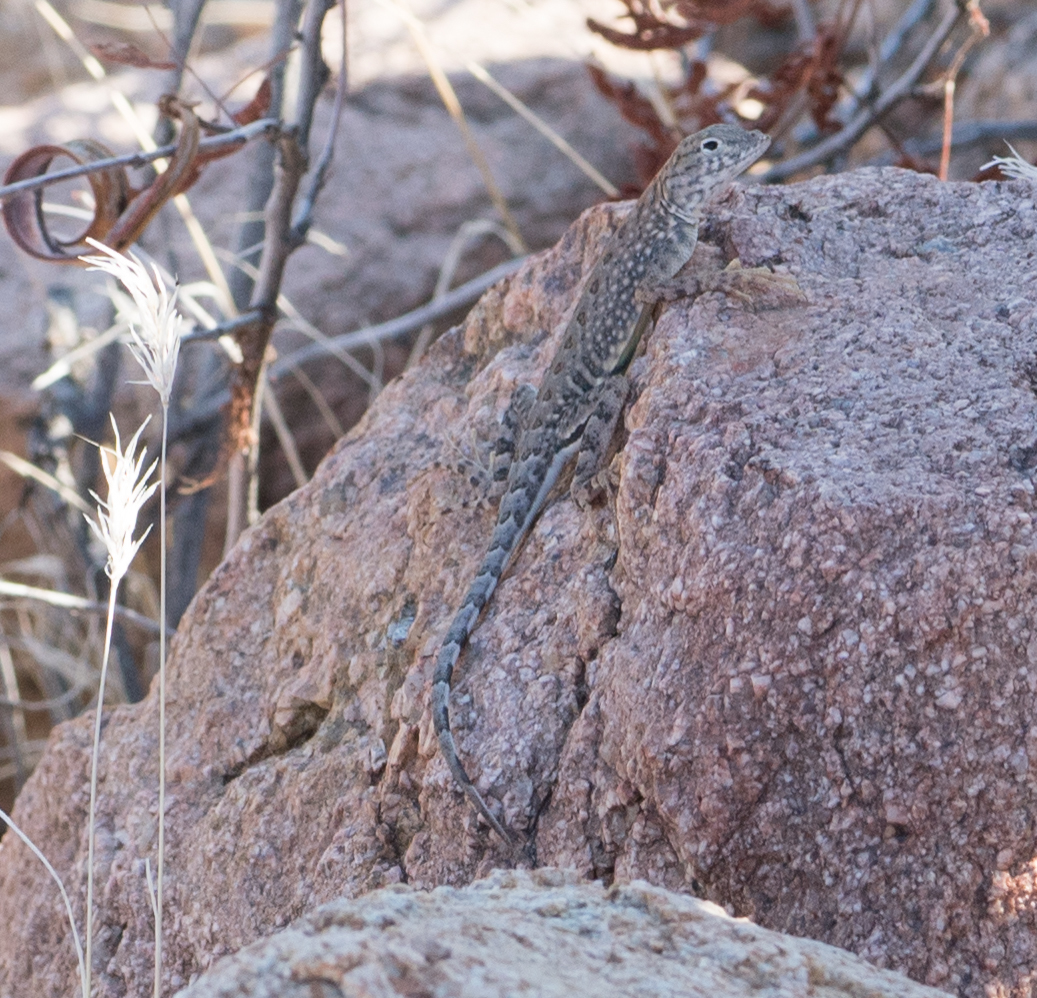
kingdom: Animalia
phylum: Chordata
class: Squamata
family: Phrynosomatidae
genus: Cophosaurus
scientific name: Cophosaurus texanus
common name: Greater earless lizard
